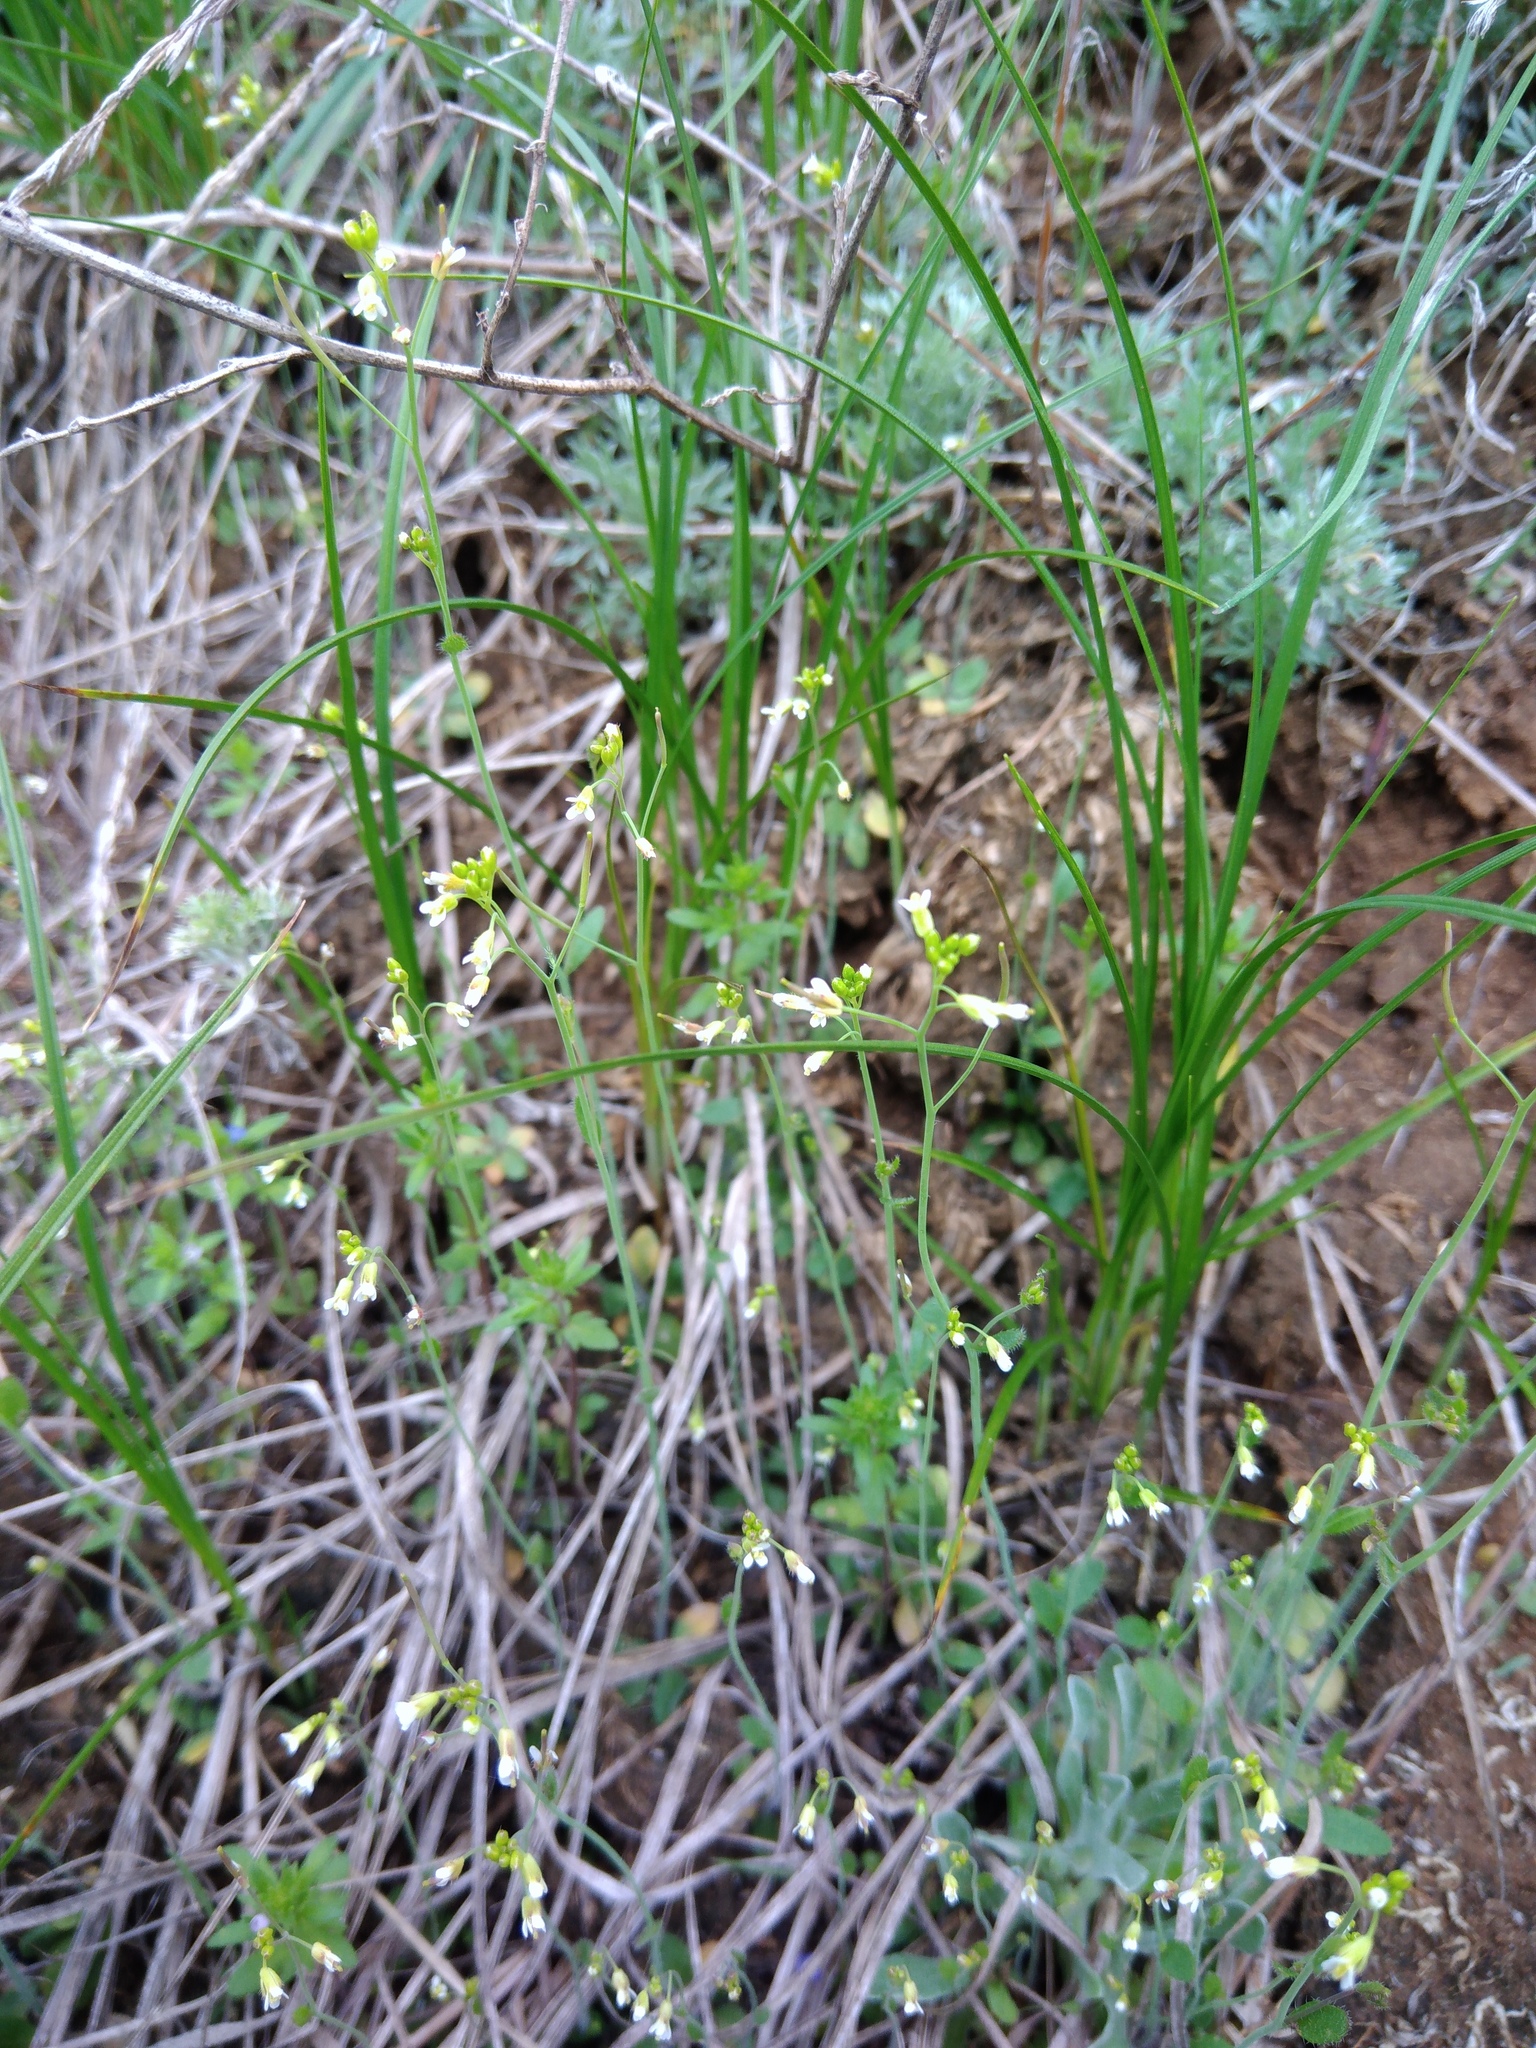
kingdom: Plantae
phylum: Tracheophyta
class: Magnoliopsida
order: Brassicales
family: Brassicaceae
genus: Arabidopsis
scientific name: Arabidopsis thaliana
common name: Thale cress
